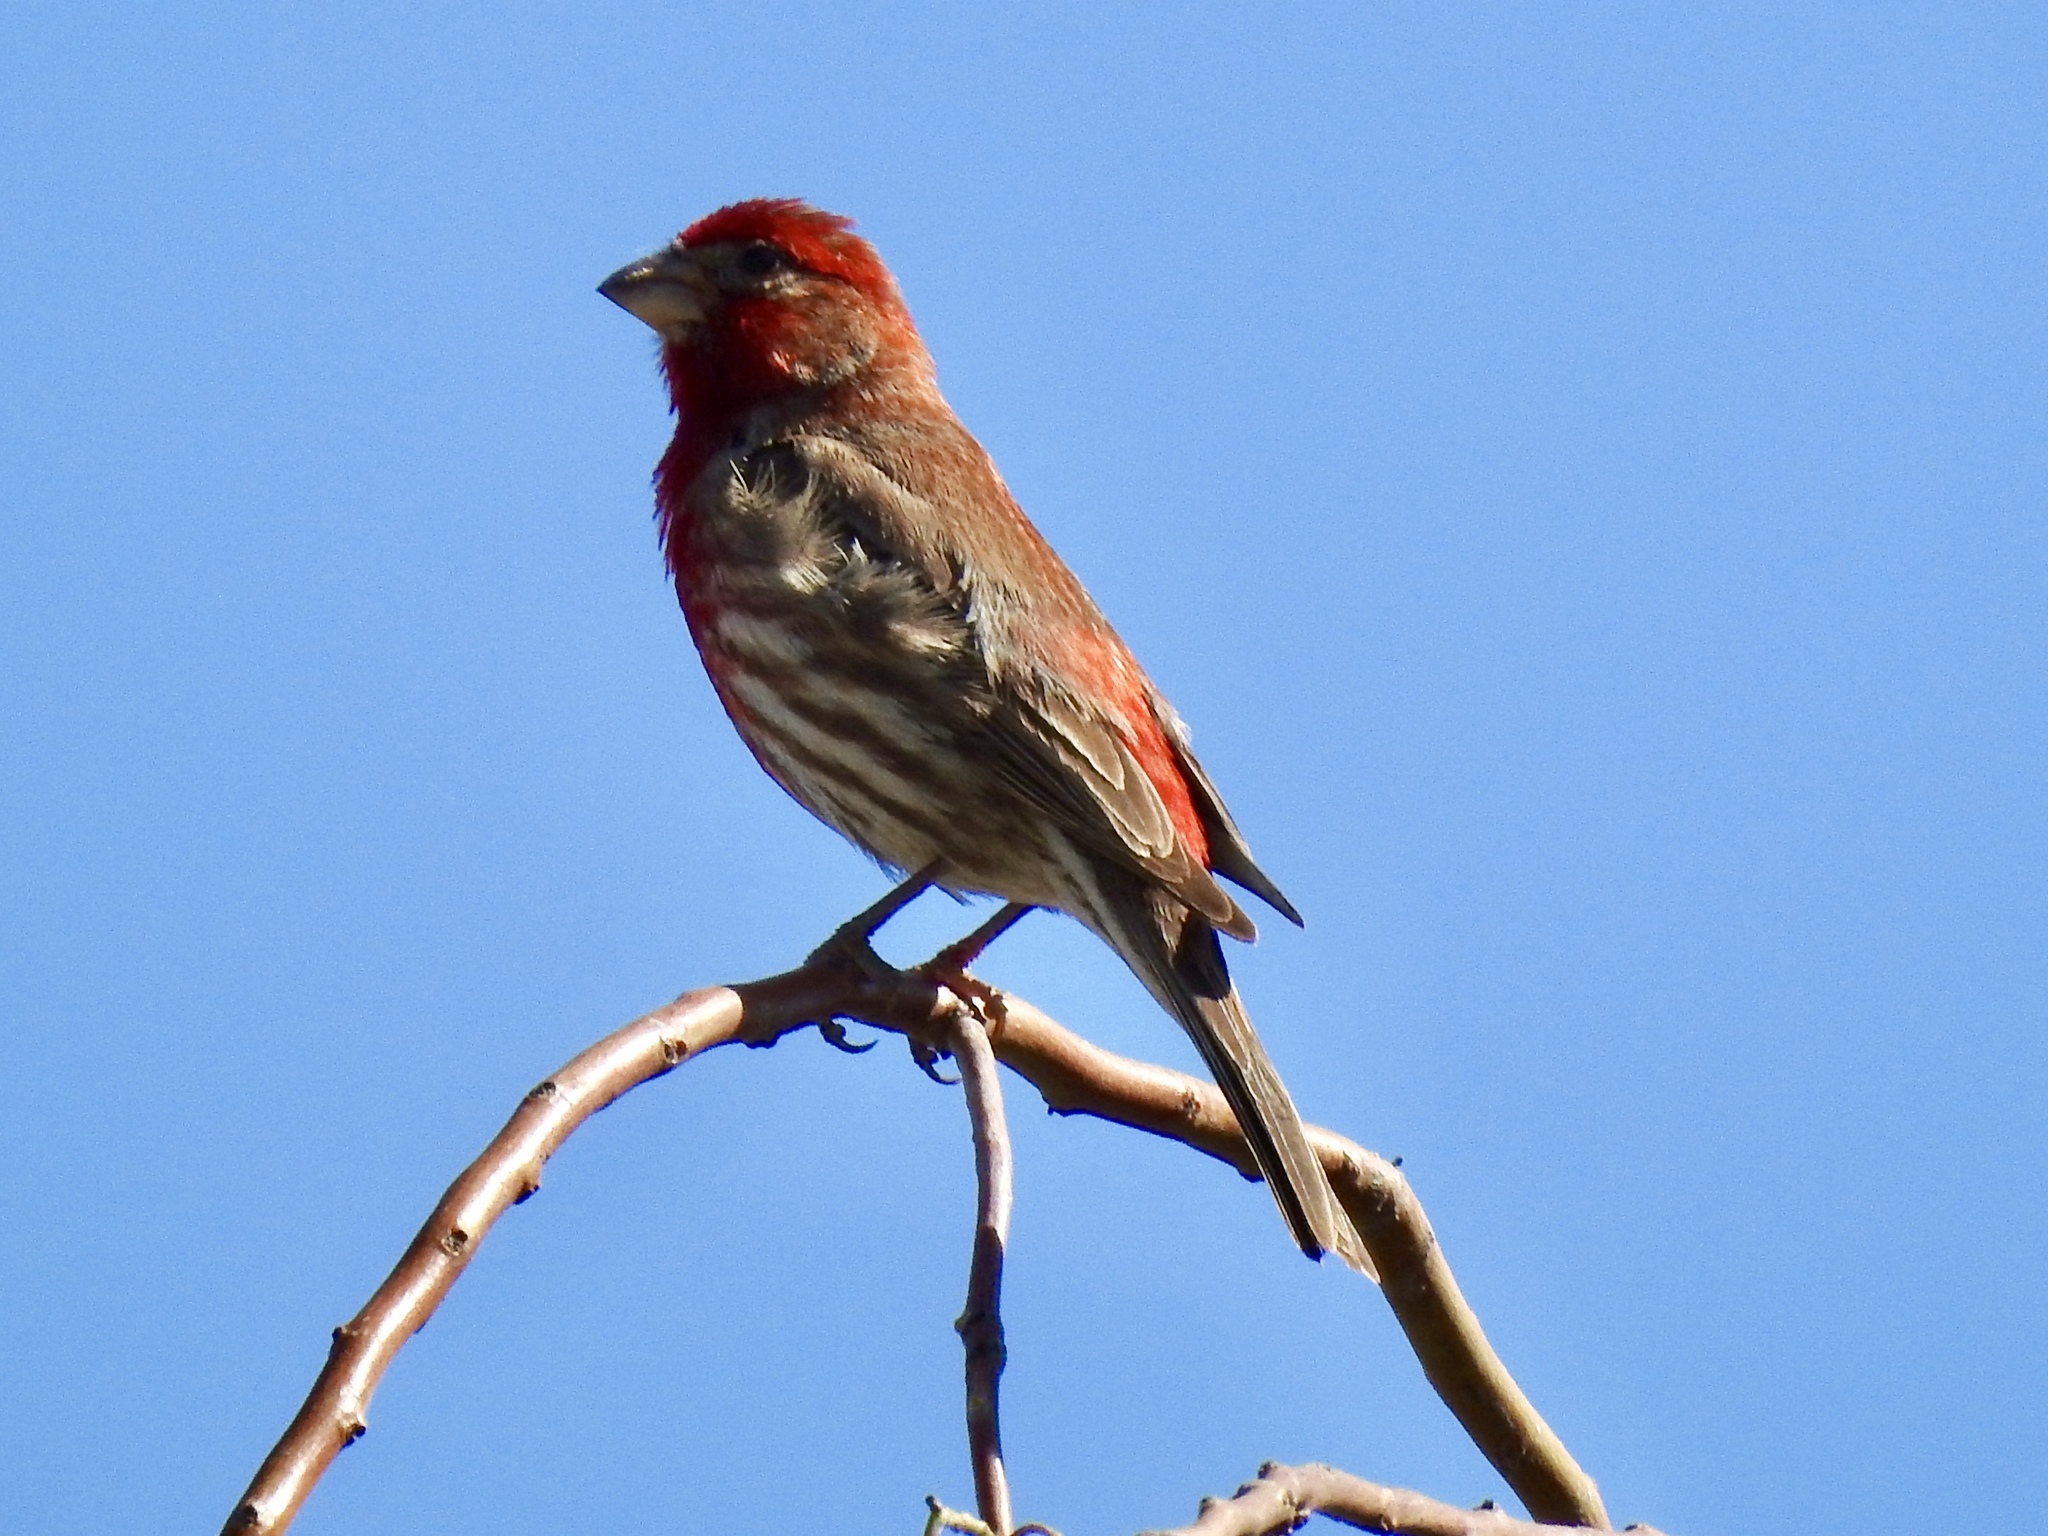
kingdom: Animalia
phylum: Chordata
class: Aves
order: Passeriformes
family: Fringillidae
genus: Haemorhous
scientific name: Haemorhous mexicanus
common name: House finch
